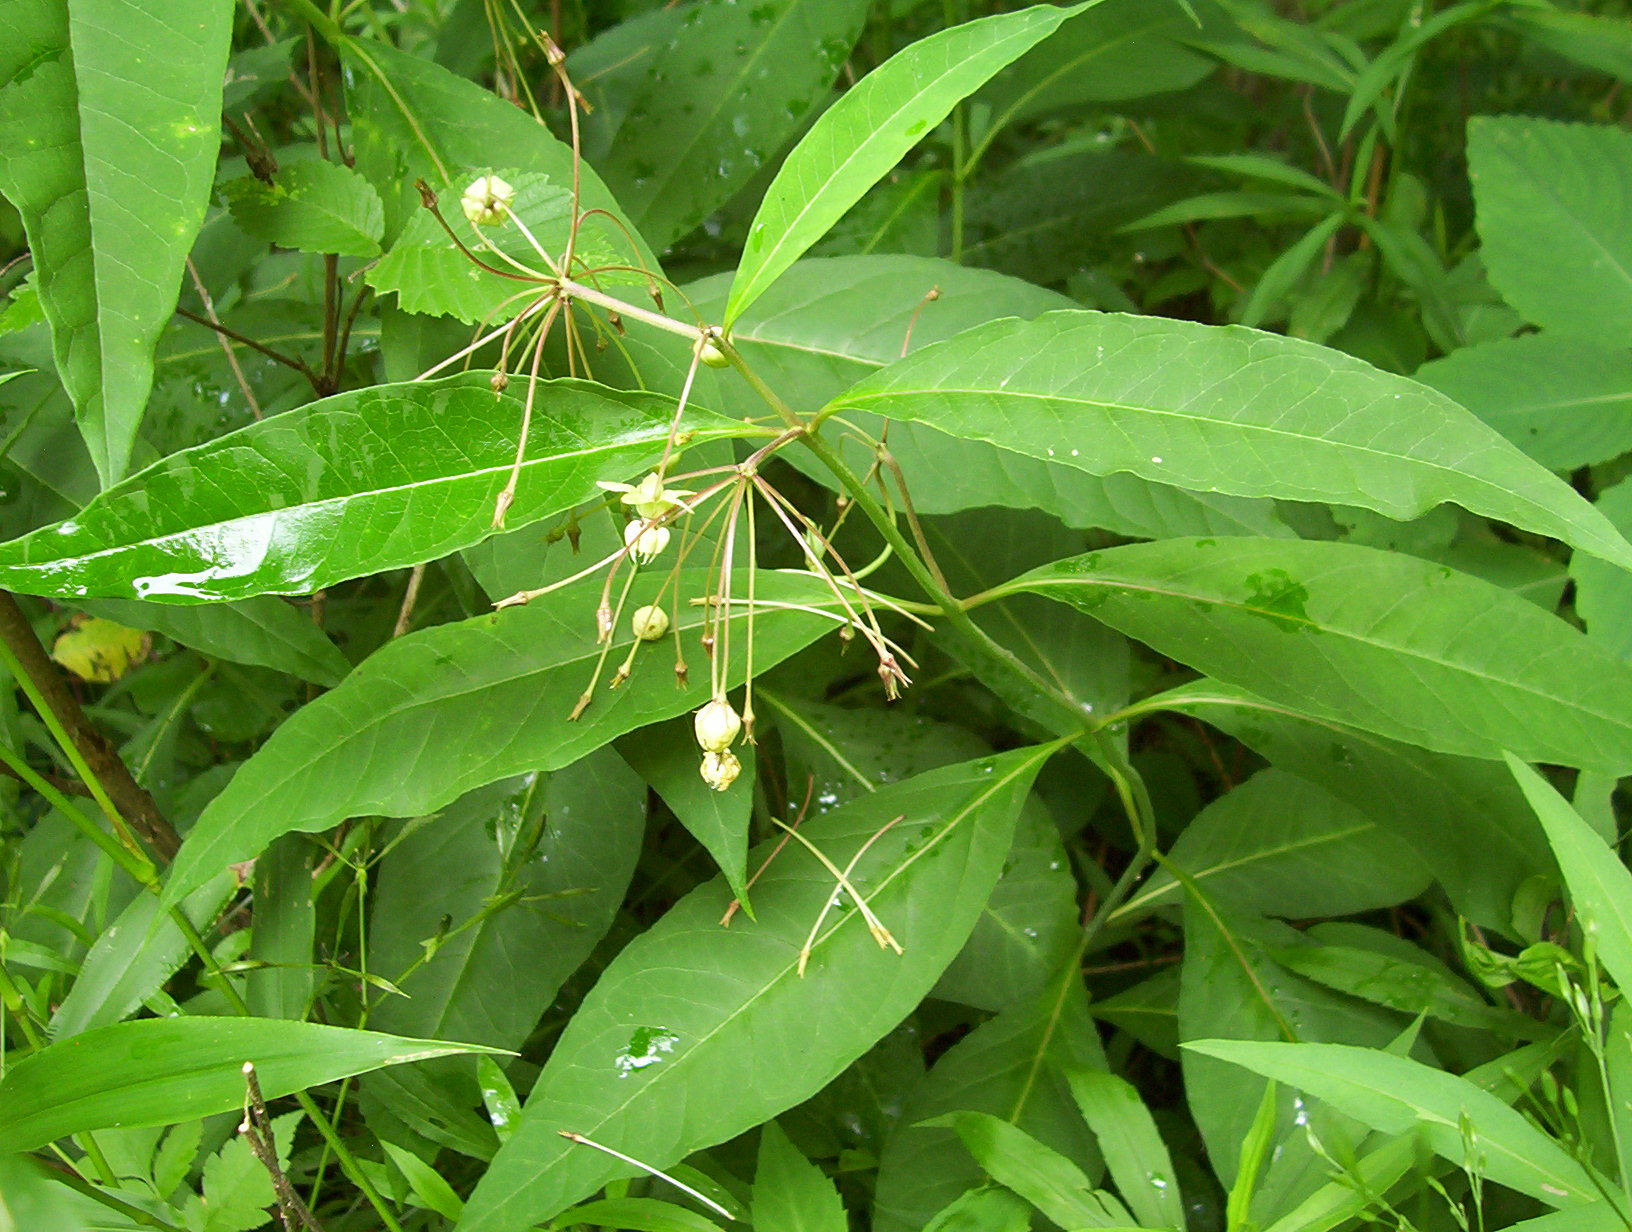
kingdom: Plantae
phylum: Tracheophyta
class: Magnoliopsida
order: Gentianales
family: Apocynaceae
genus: Asclepias
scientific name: Asclepias exaltata
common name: Poke milkweed
